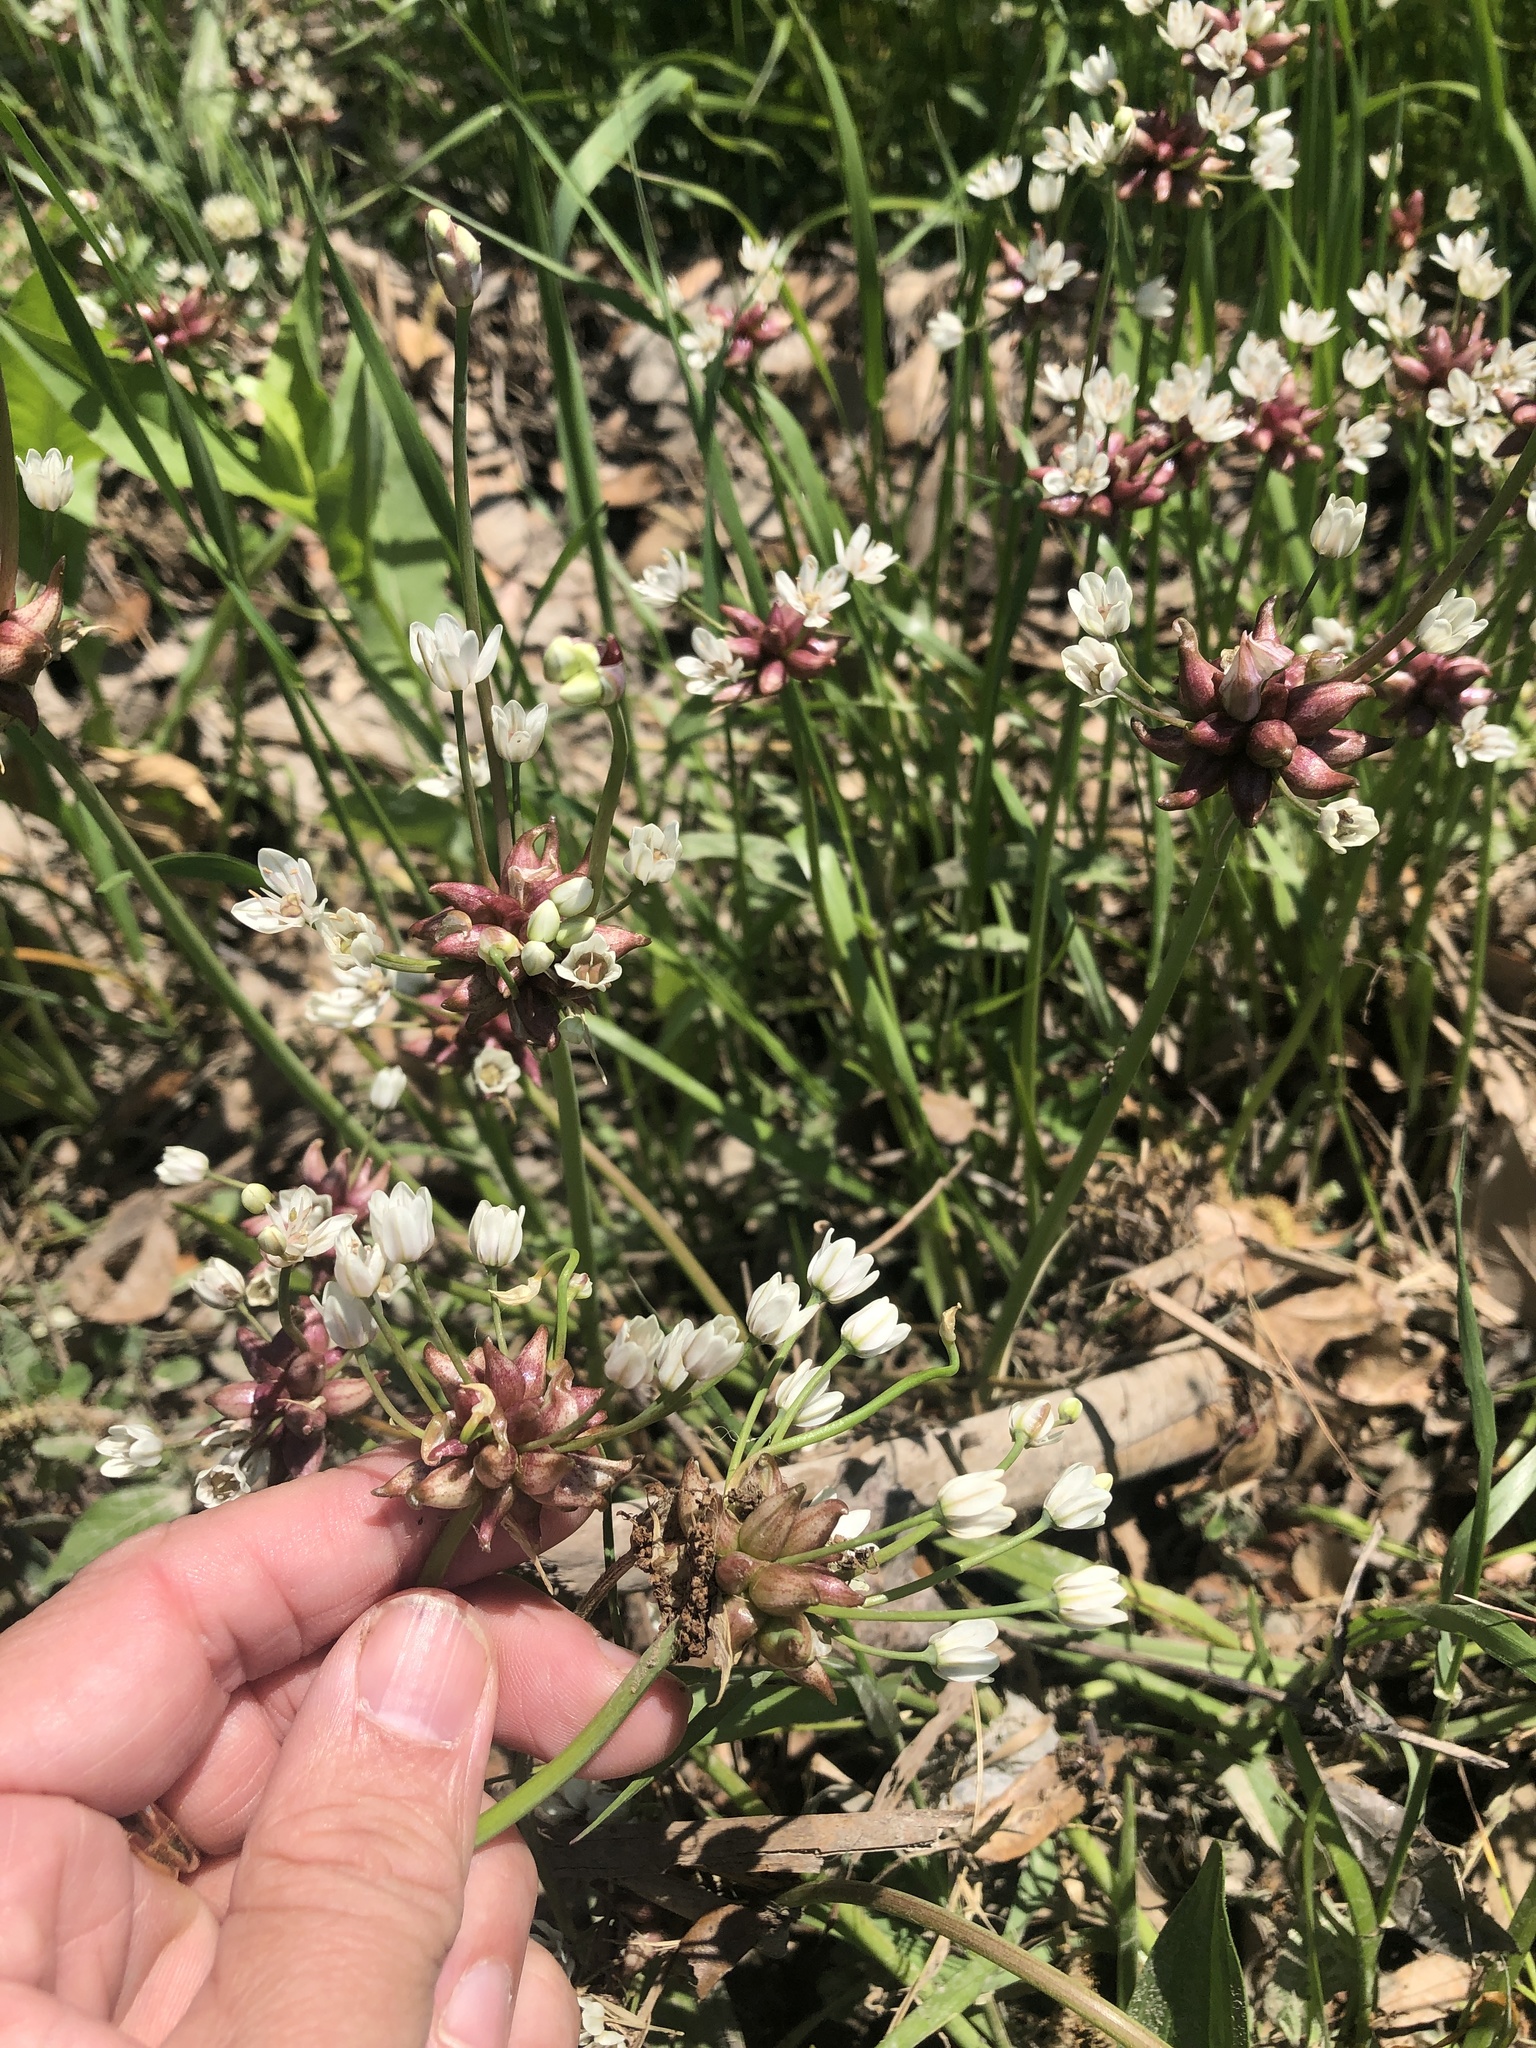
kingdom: Plantae
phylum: Tracheophyta
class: Liliopsida
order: Asparagales
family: Amaryllidaceae
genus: Allium
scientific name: Allium canadense
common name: Meadow garlic
